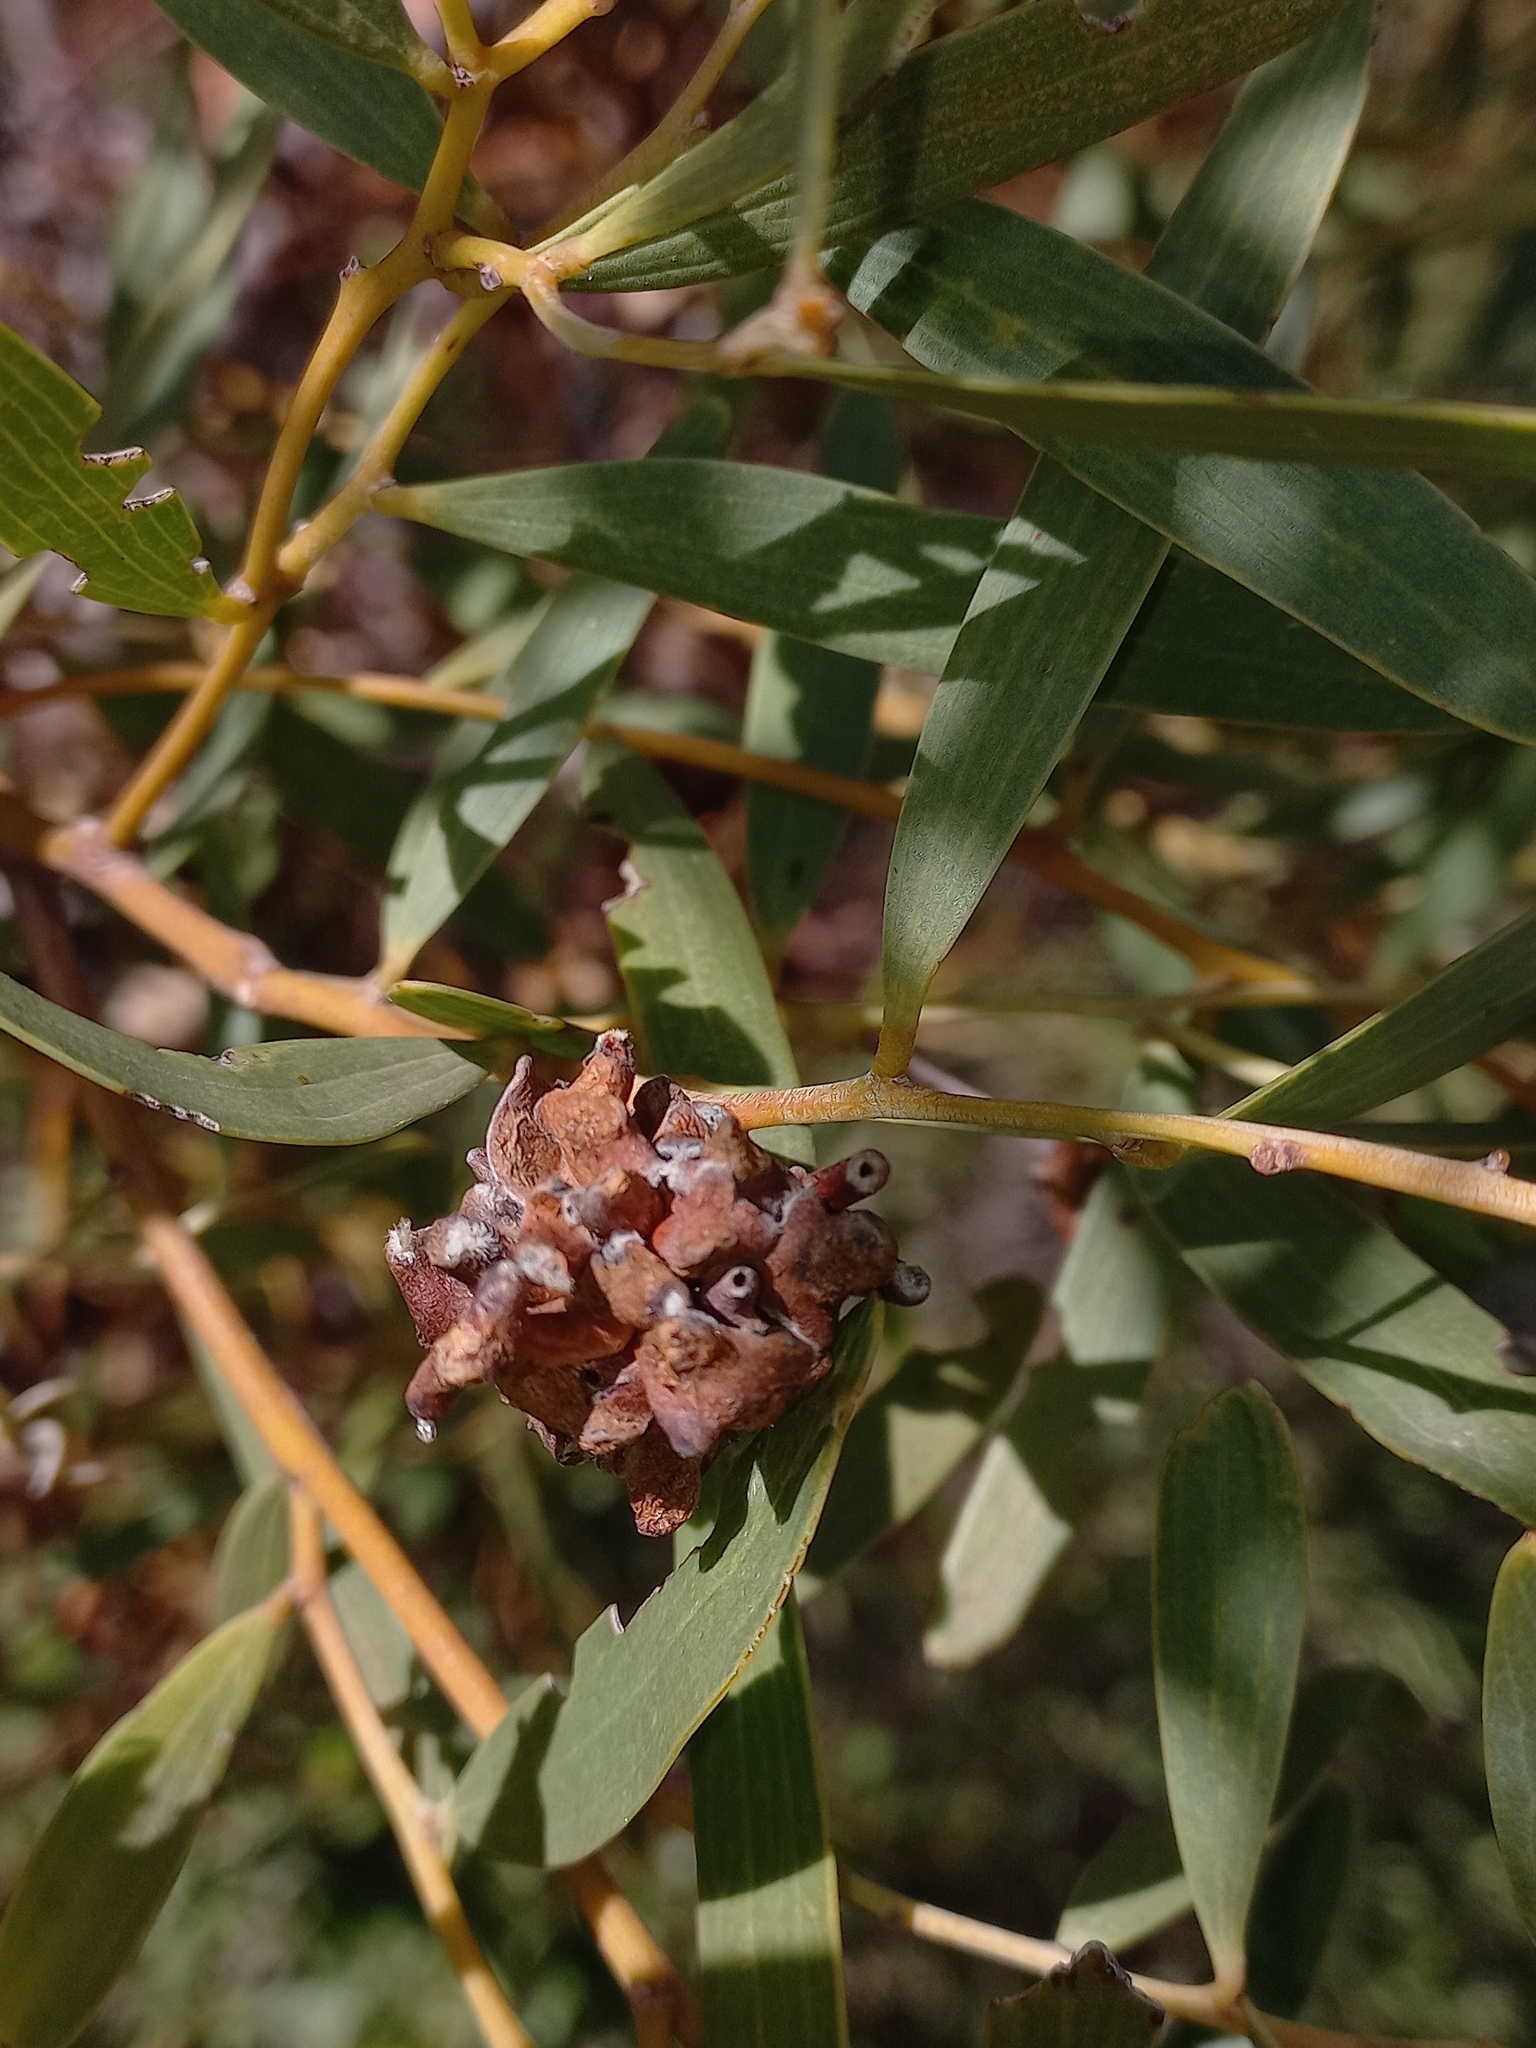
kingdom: Animalia
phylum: Arthropoda
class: Insecta
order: Diptera
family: Cecidomyiidae
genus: Dasineura
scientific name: Dasineura dielsi
